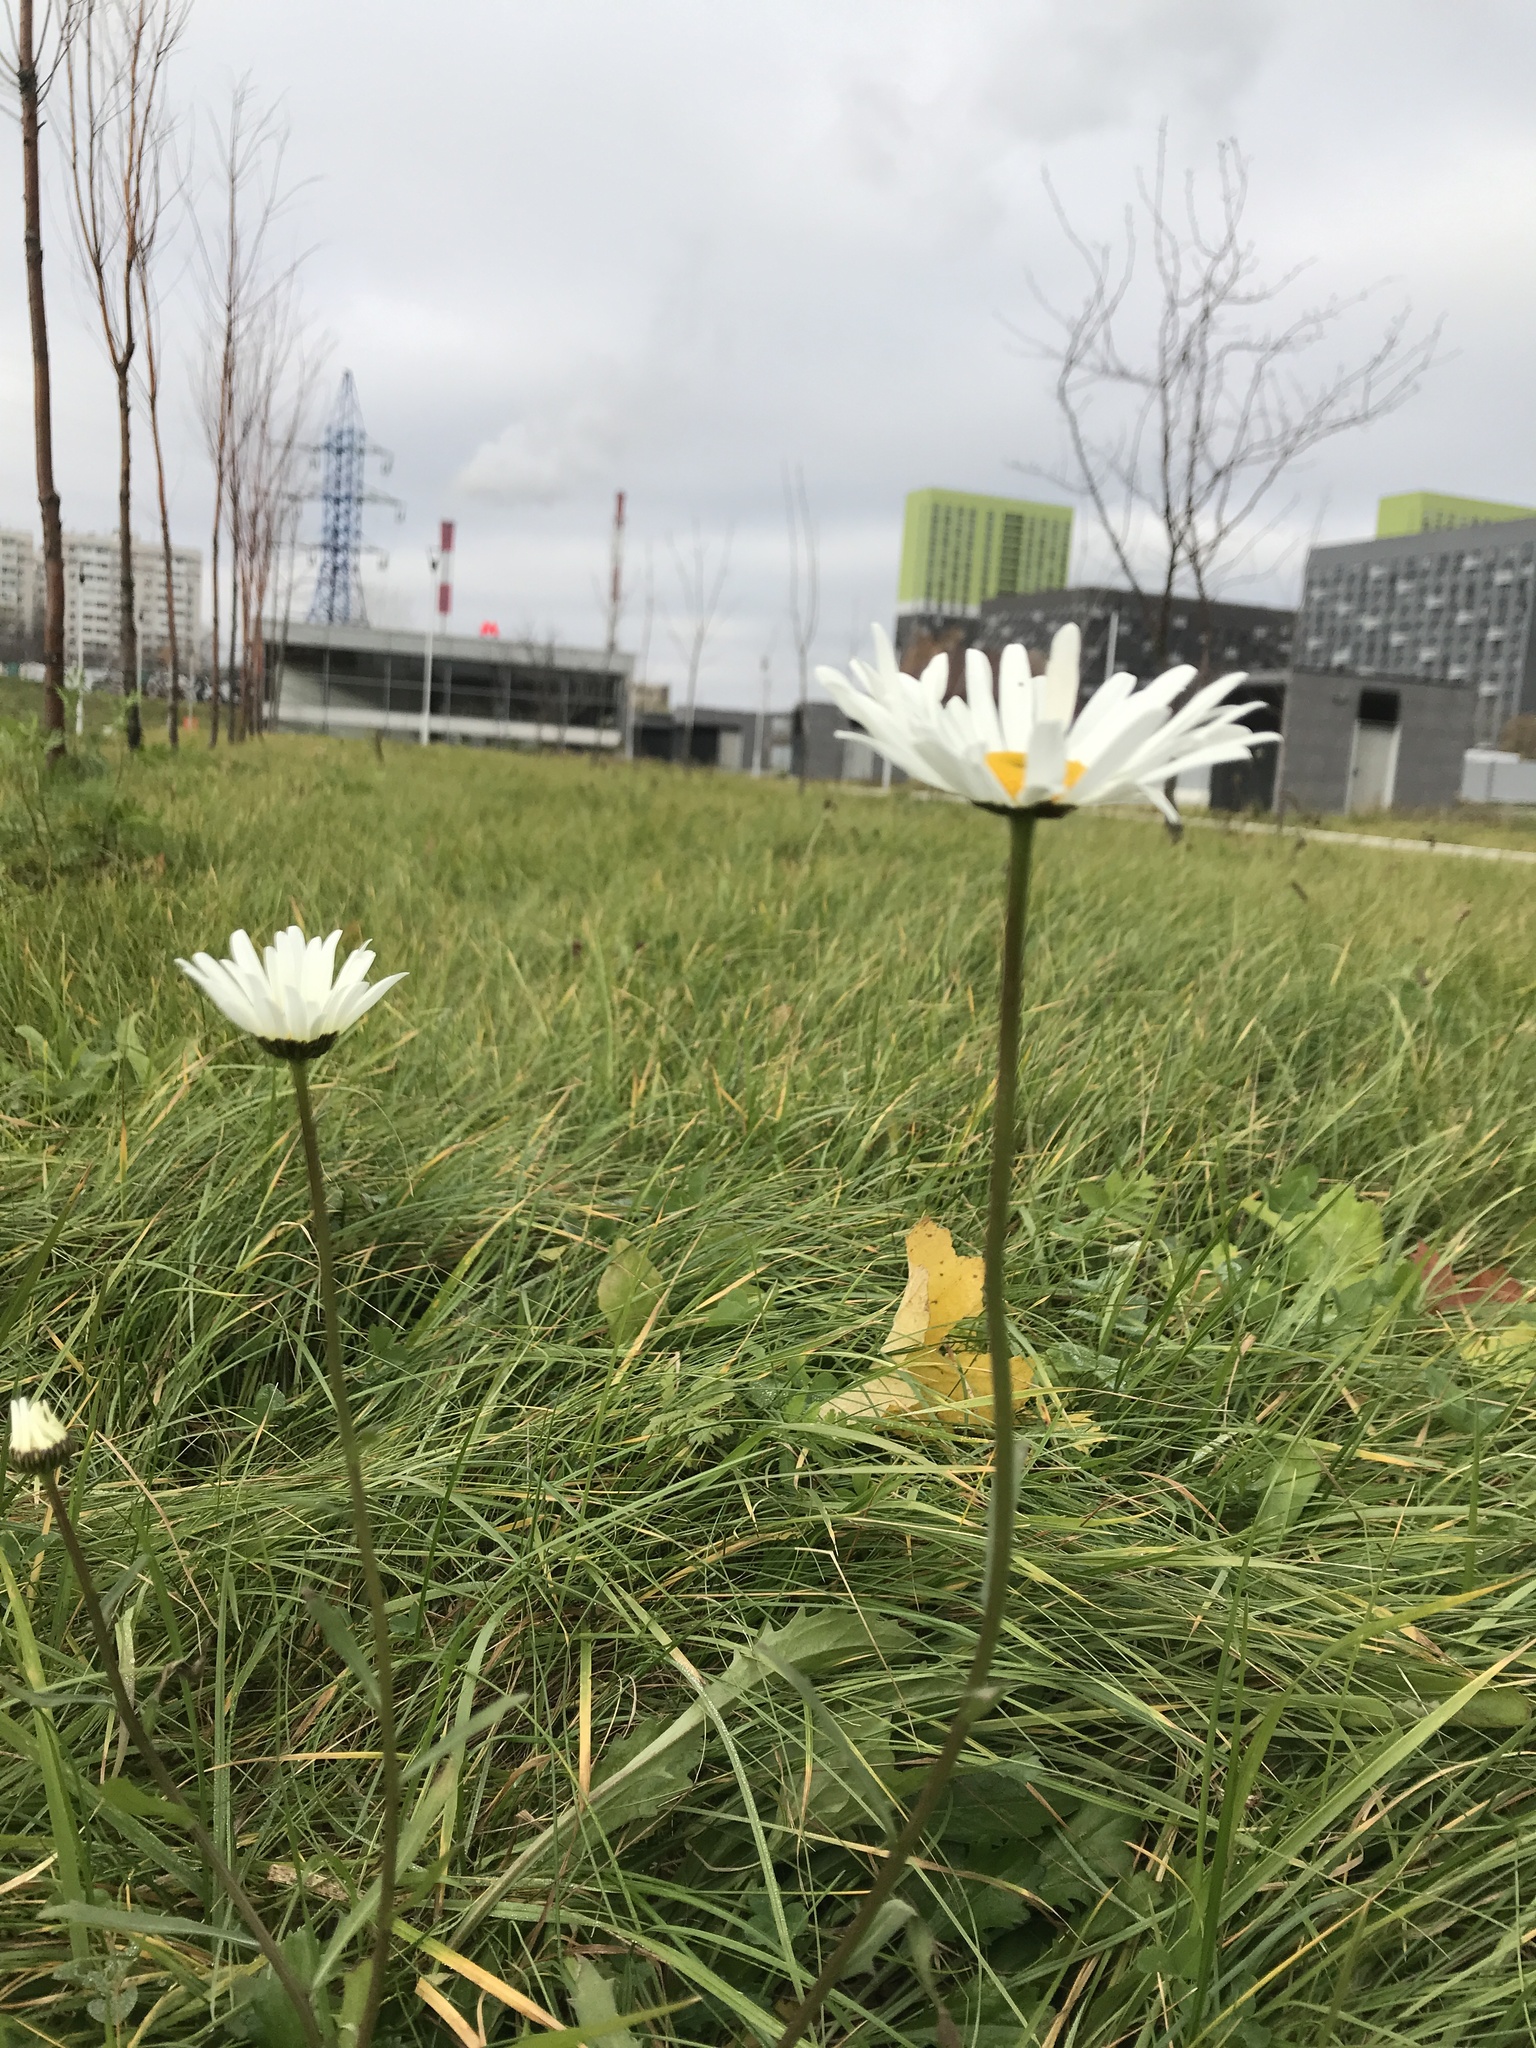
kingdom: Plantae
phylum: Tracheophyta
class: Magnoliopsida
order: Asterales
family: Asteraceae
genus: Leucanthemum
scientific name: Leucanthemum vulgare
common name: Oxeye daisy
